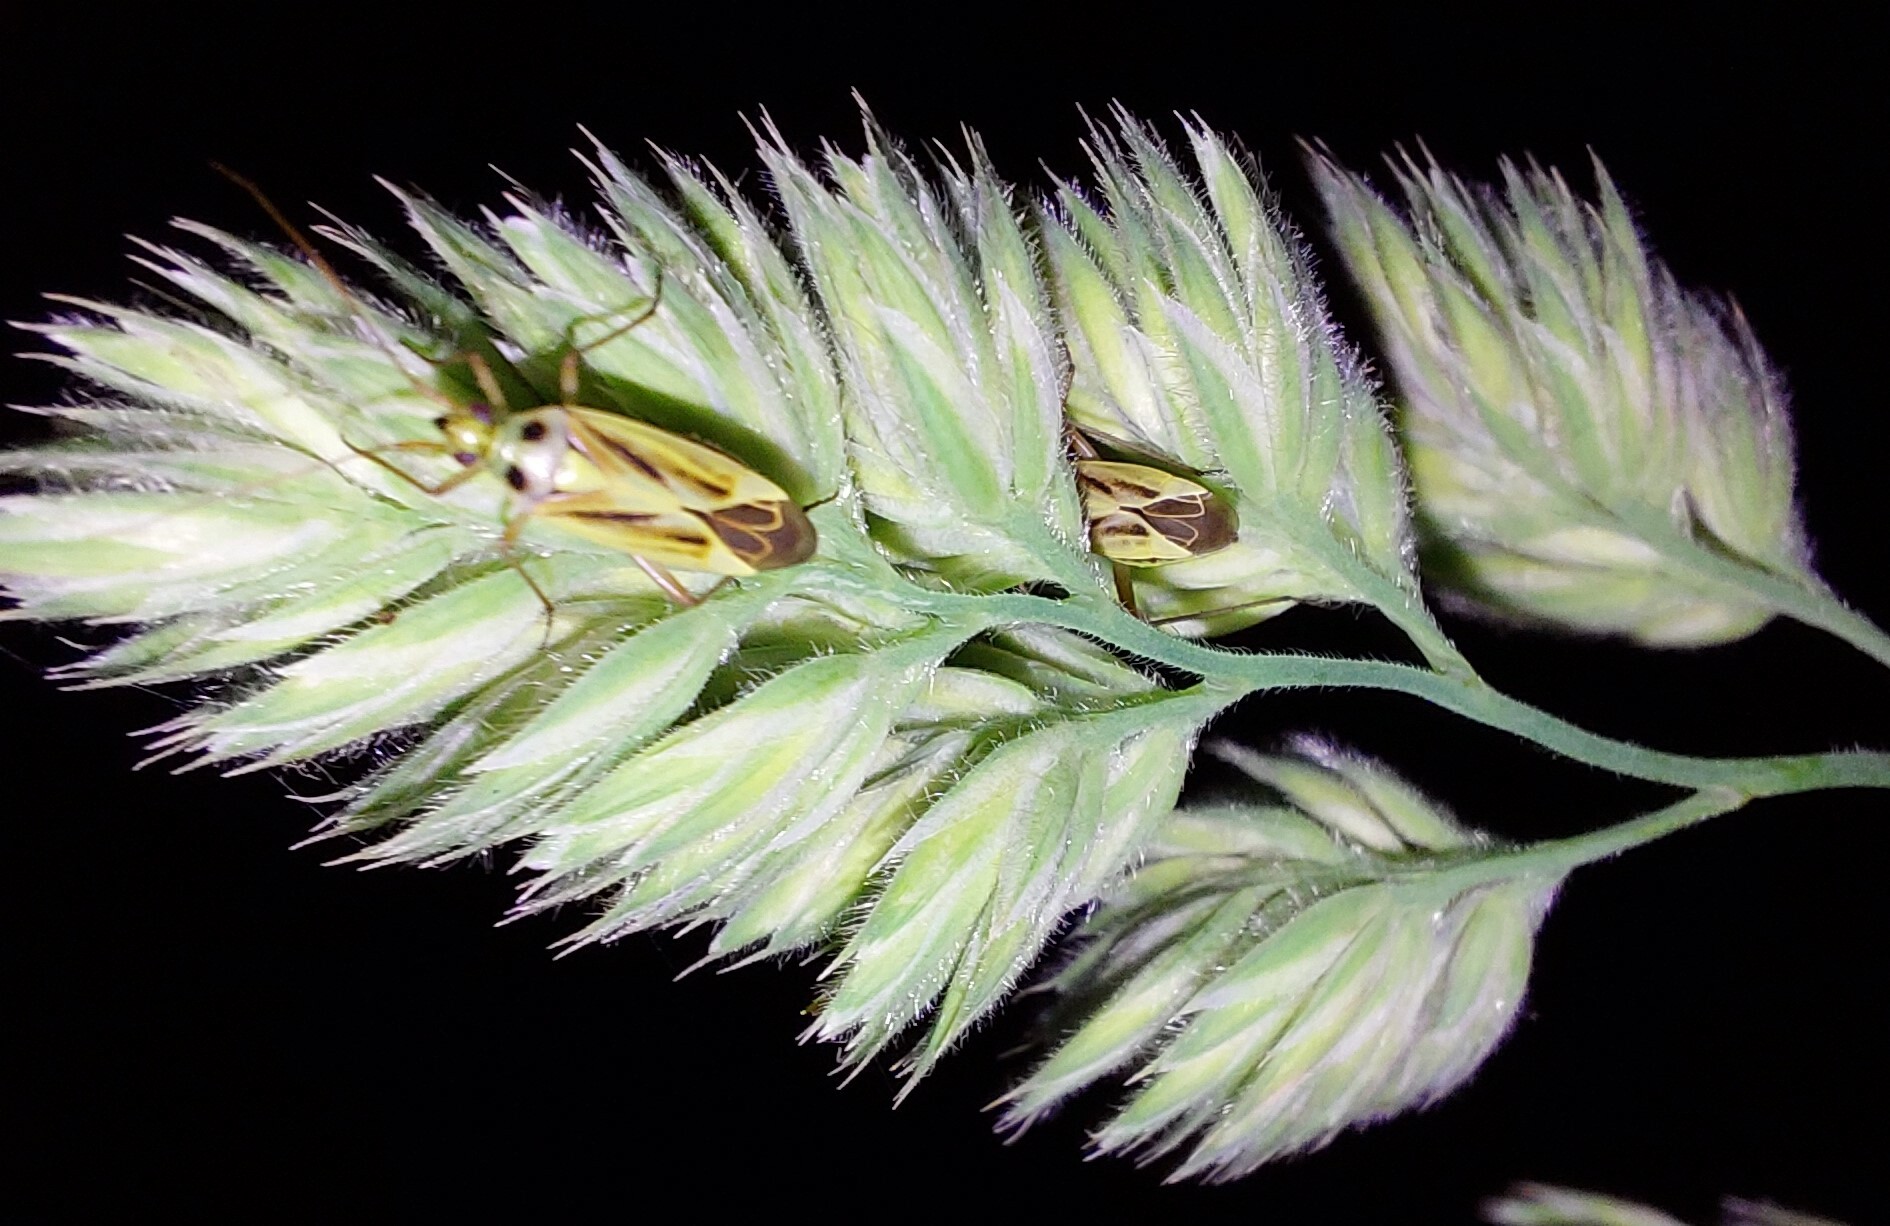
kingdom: Animalia
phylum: Arthropoda
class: Insecta
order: Hemiptera
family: Miridae
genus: Stenotus
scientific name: Stenotus binotatus
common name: Plant bug
